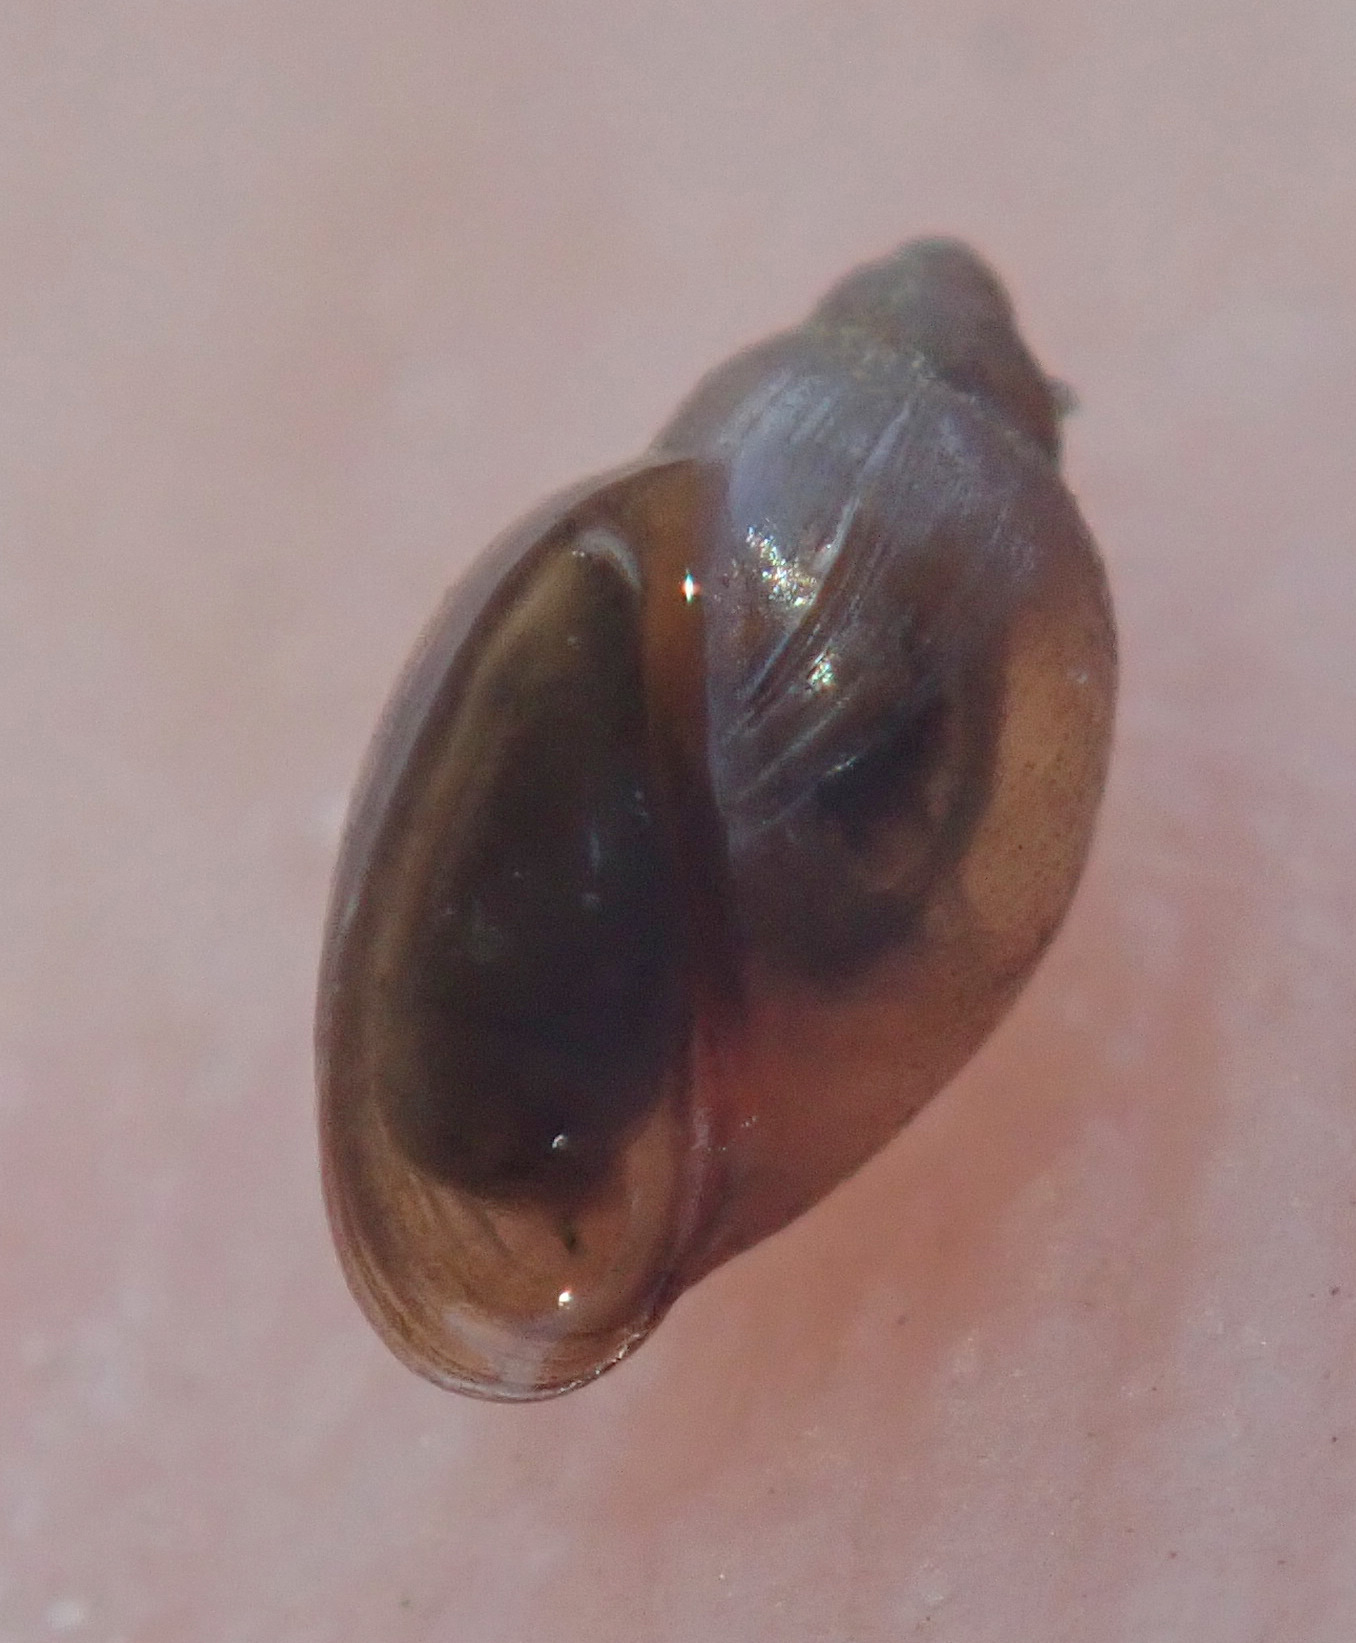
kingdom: Animalia
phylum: Mollusca
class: Gastropoda
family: Physidae
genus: Physella
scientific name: Physella acuta
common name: European physa
